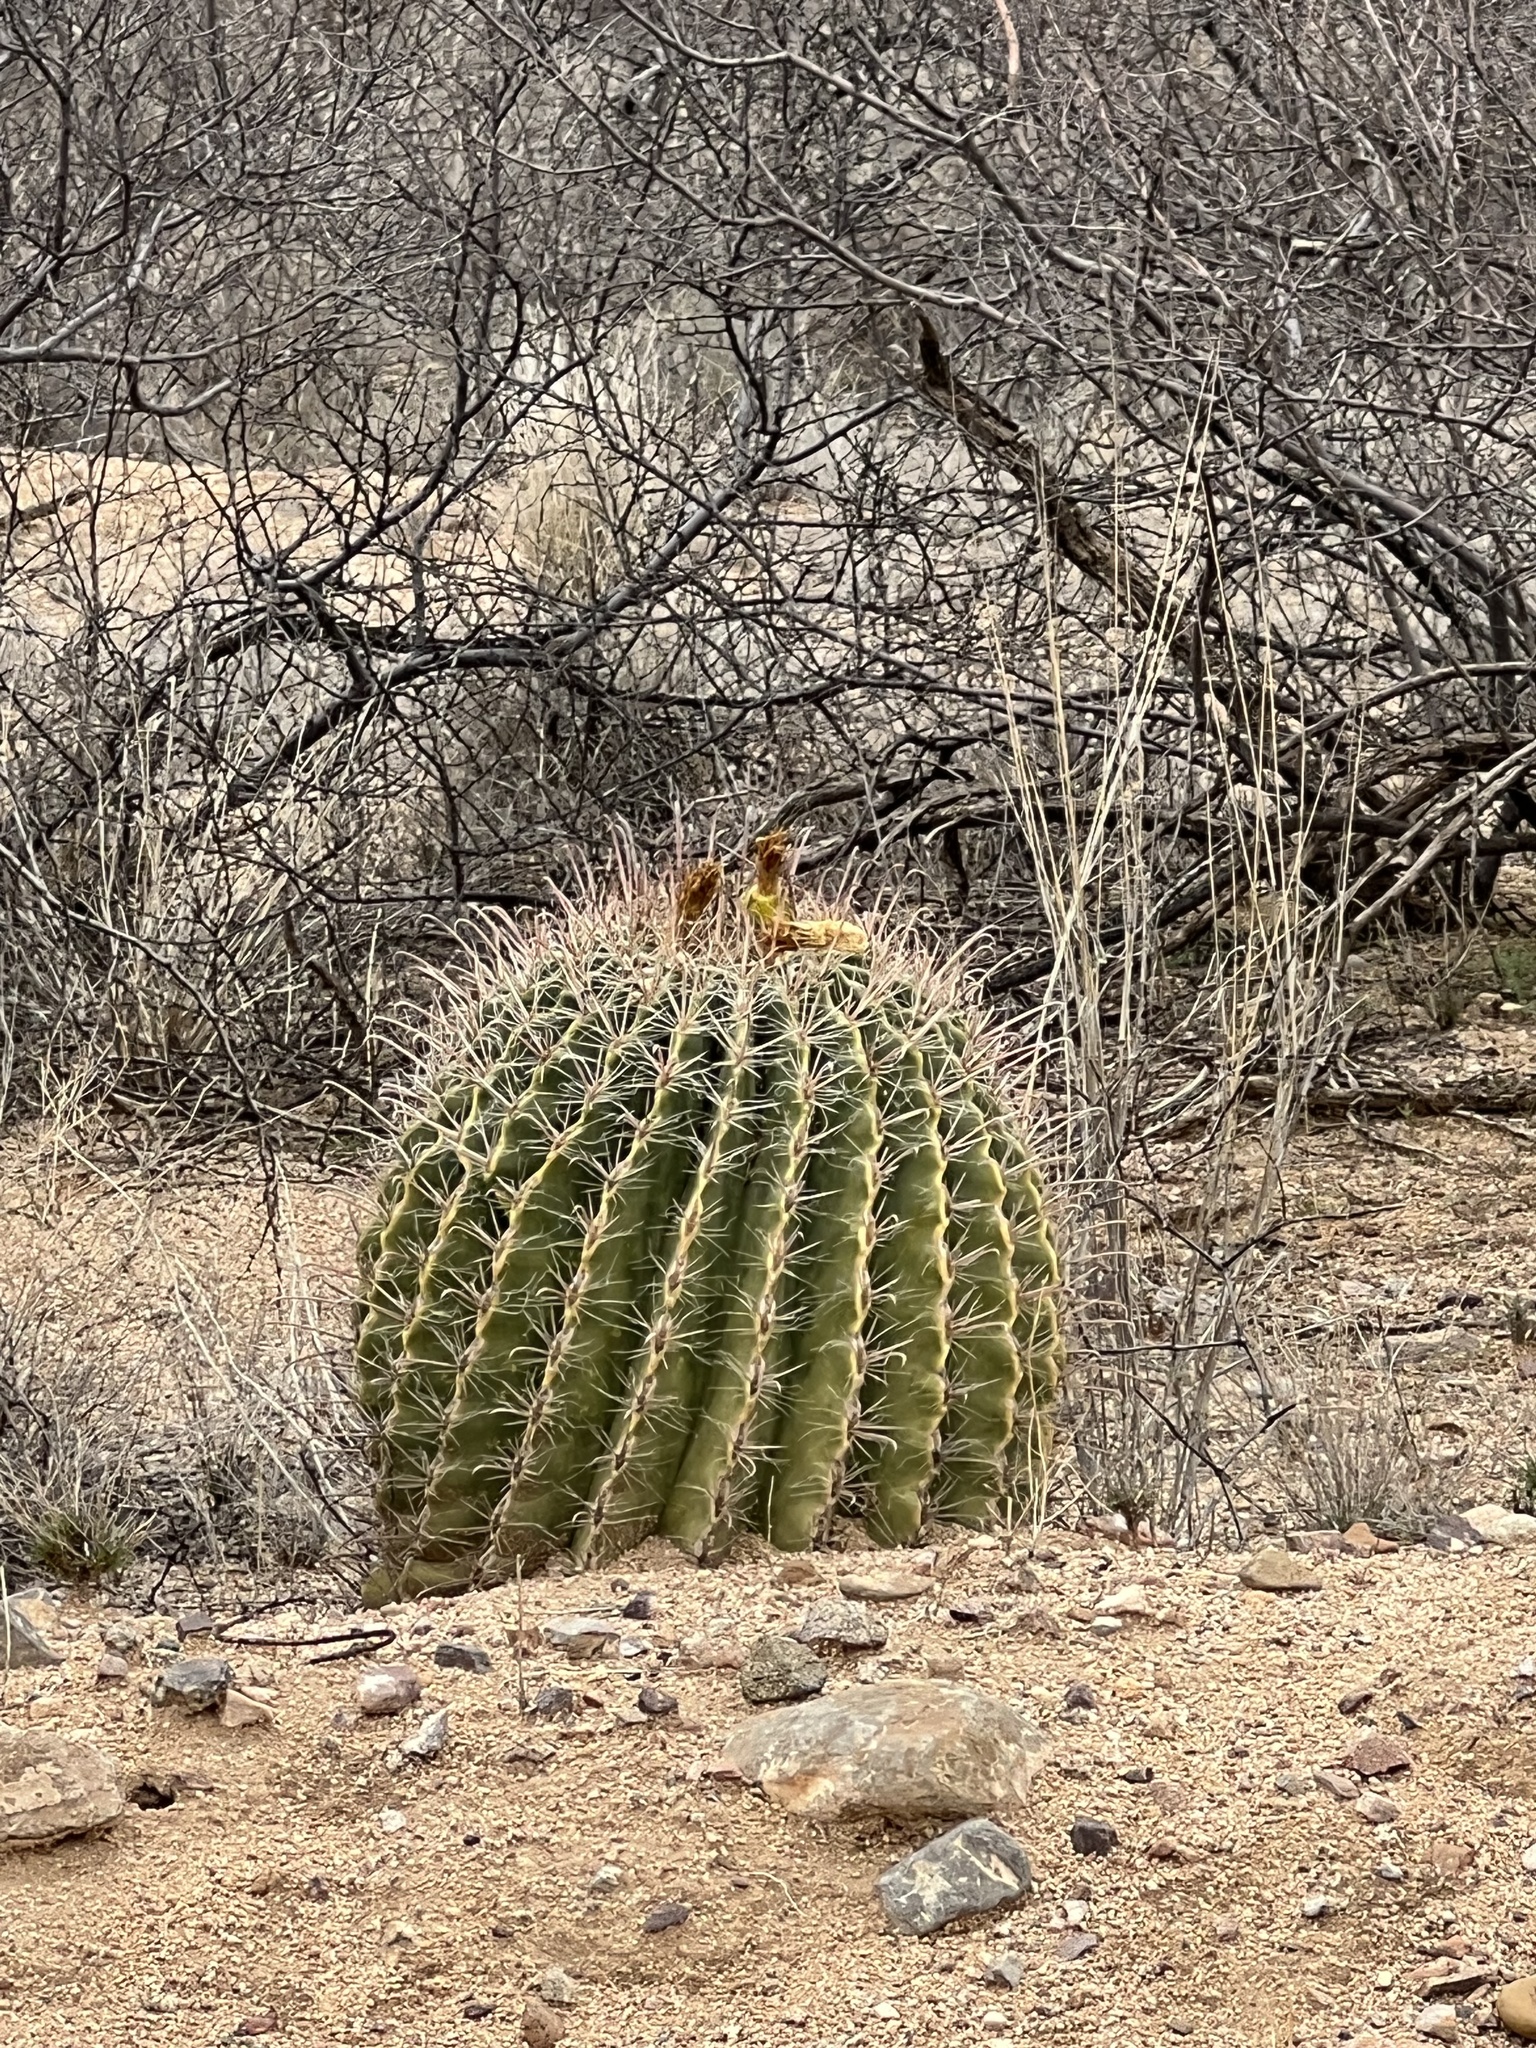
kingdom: Plantae
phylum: Tracheophyta
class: Magnoliopsida
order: Caryophyllales
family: Cactaceae
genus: Ferocactus
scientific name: Ferocactus wislizeni
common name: Candy barrel cactus
